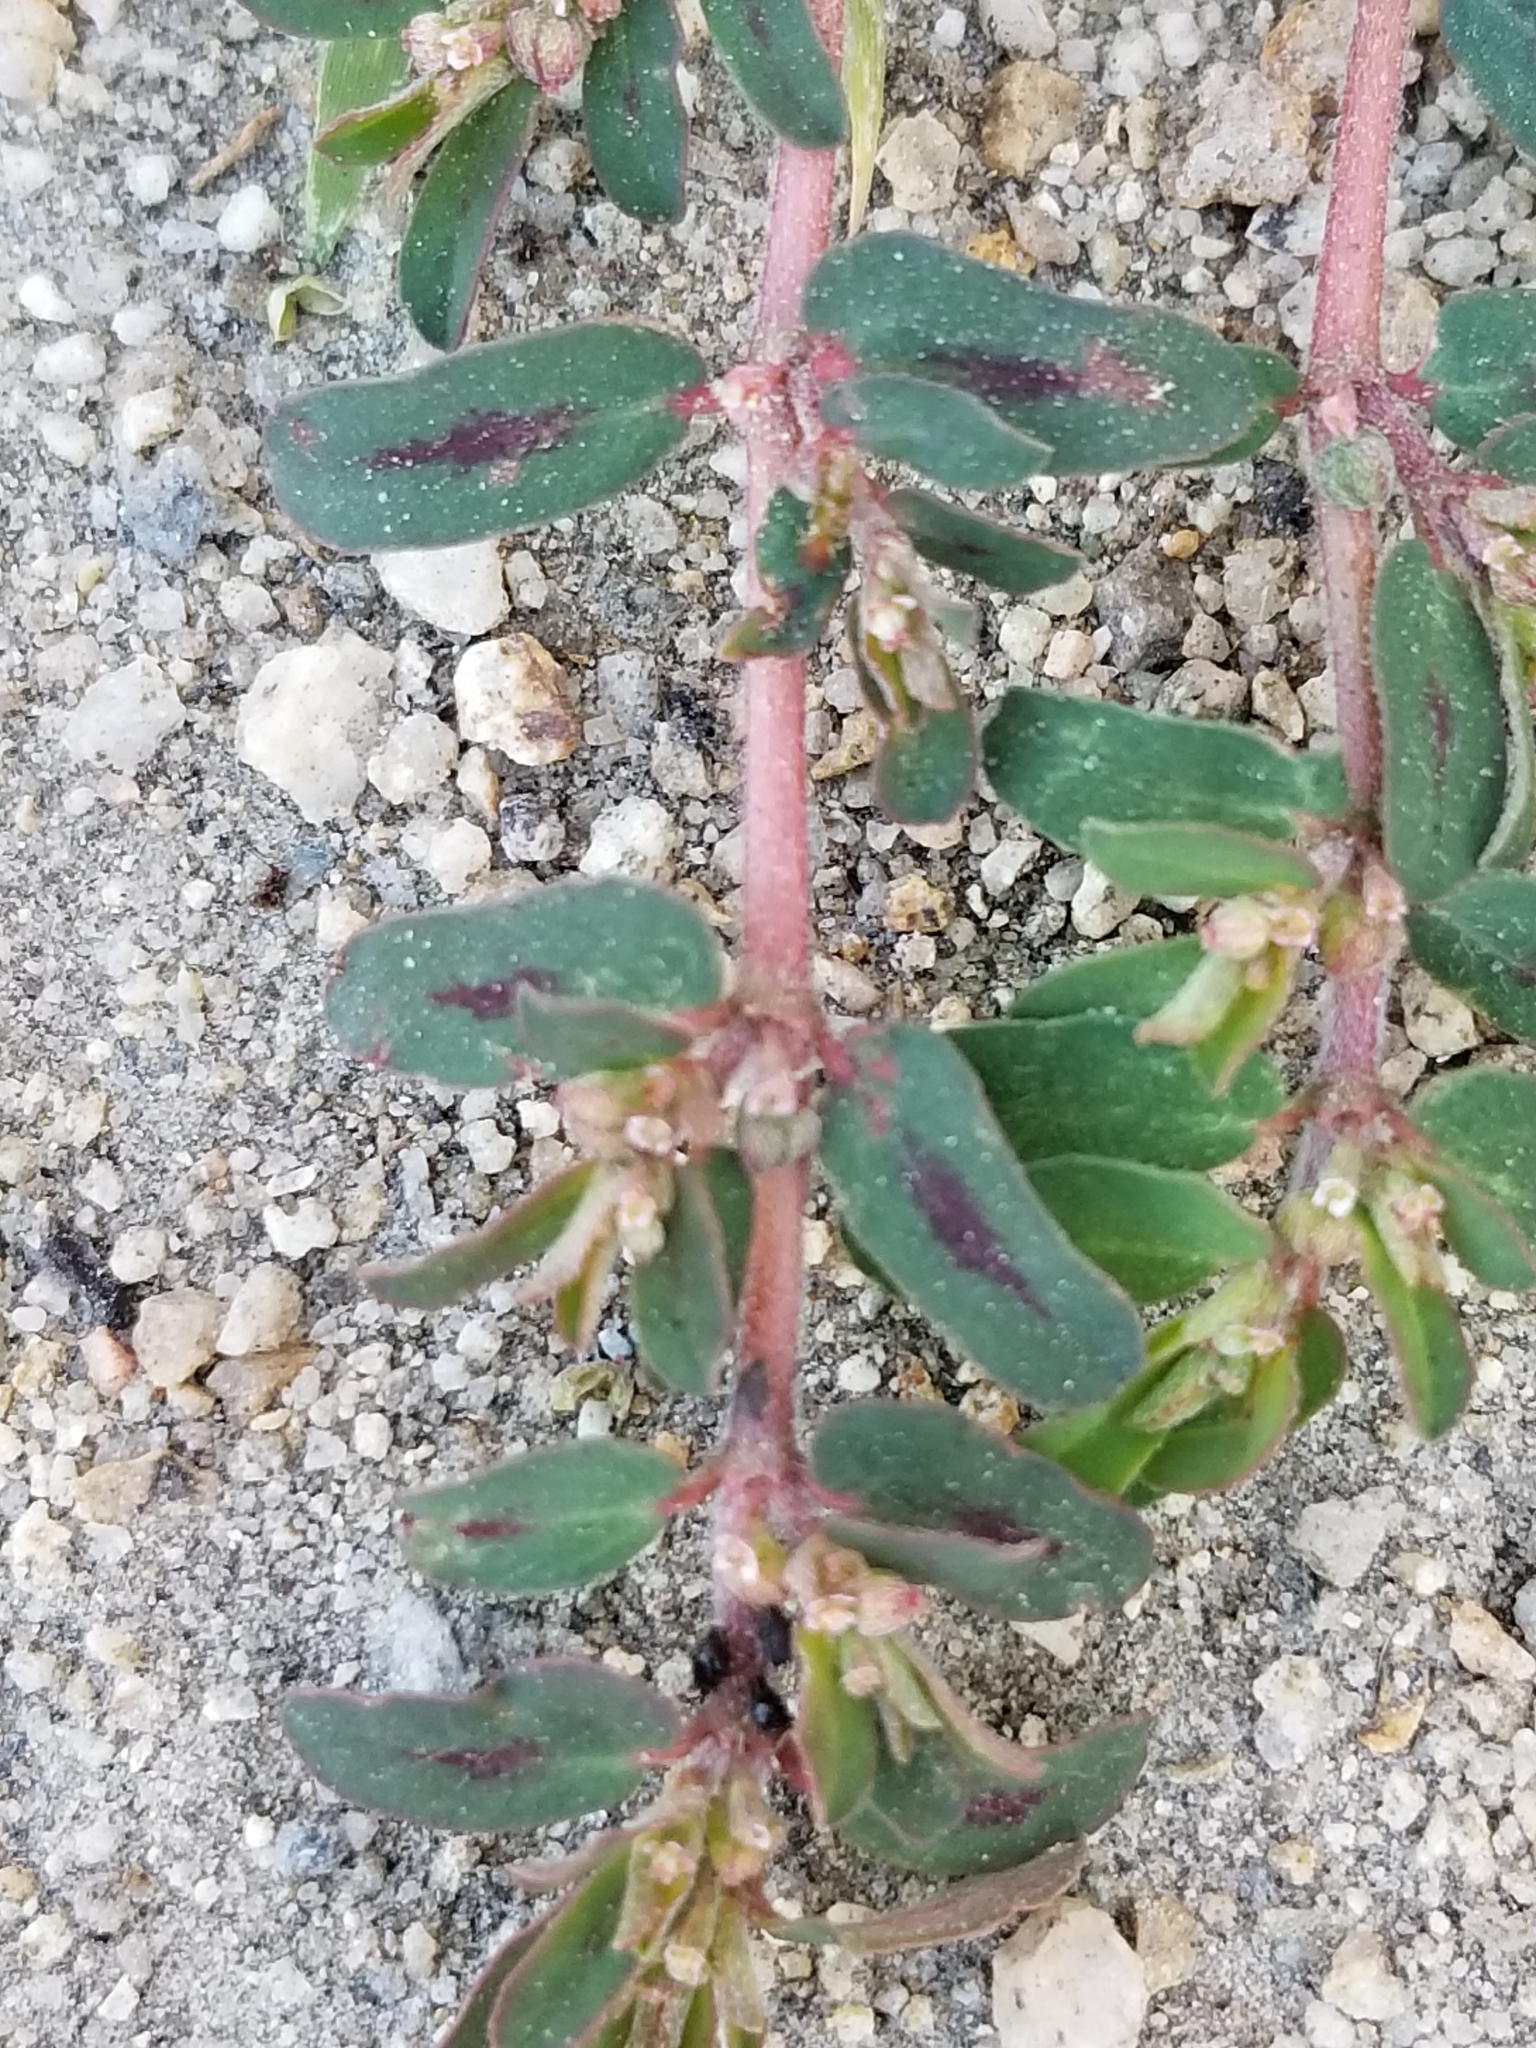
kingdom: Plantae
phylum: Tracheophyta
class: Magnoliopsida
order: Malpighiales
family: Euphorbiaceae
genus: Euphorbia
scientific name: Euphorbia maculata
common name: Spotted spurge
